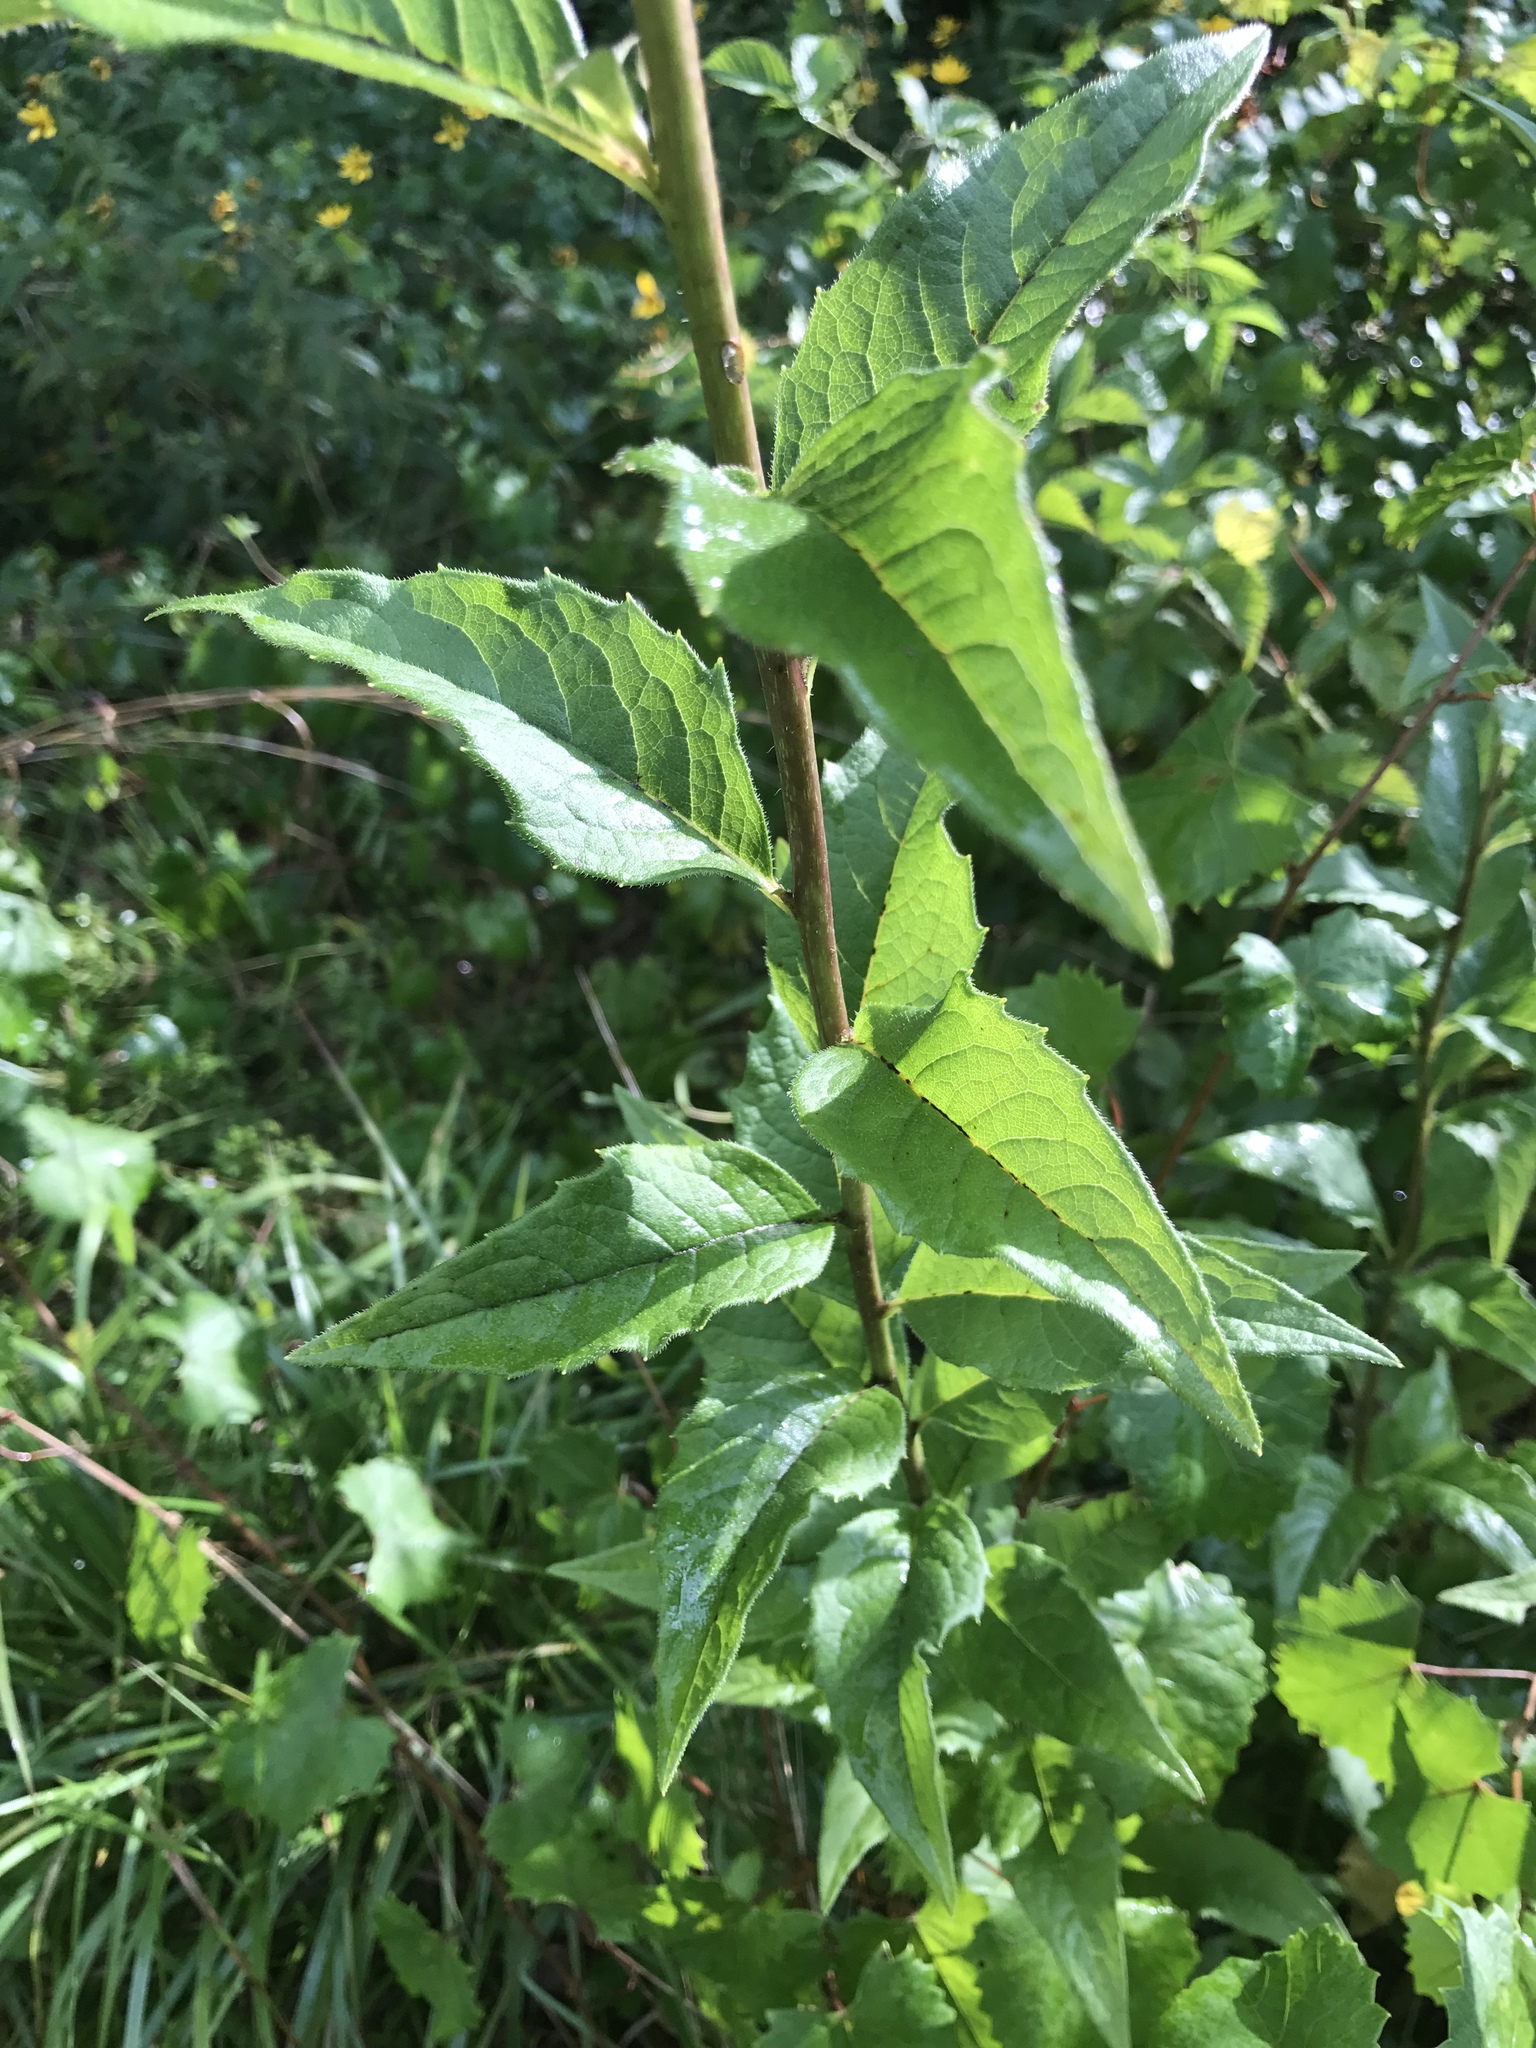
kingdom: Plantae
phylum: Tracheophyta
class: Magnoliopsida
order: Asterales
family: Asteraceae
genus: Silphium
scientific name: Silphium asteriscus
